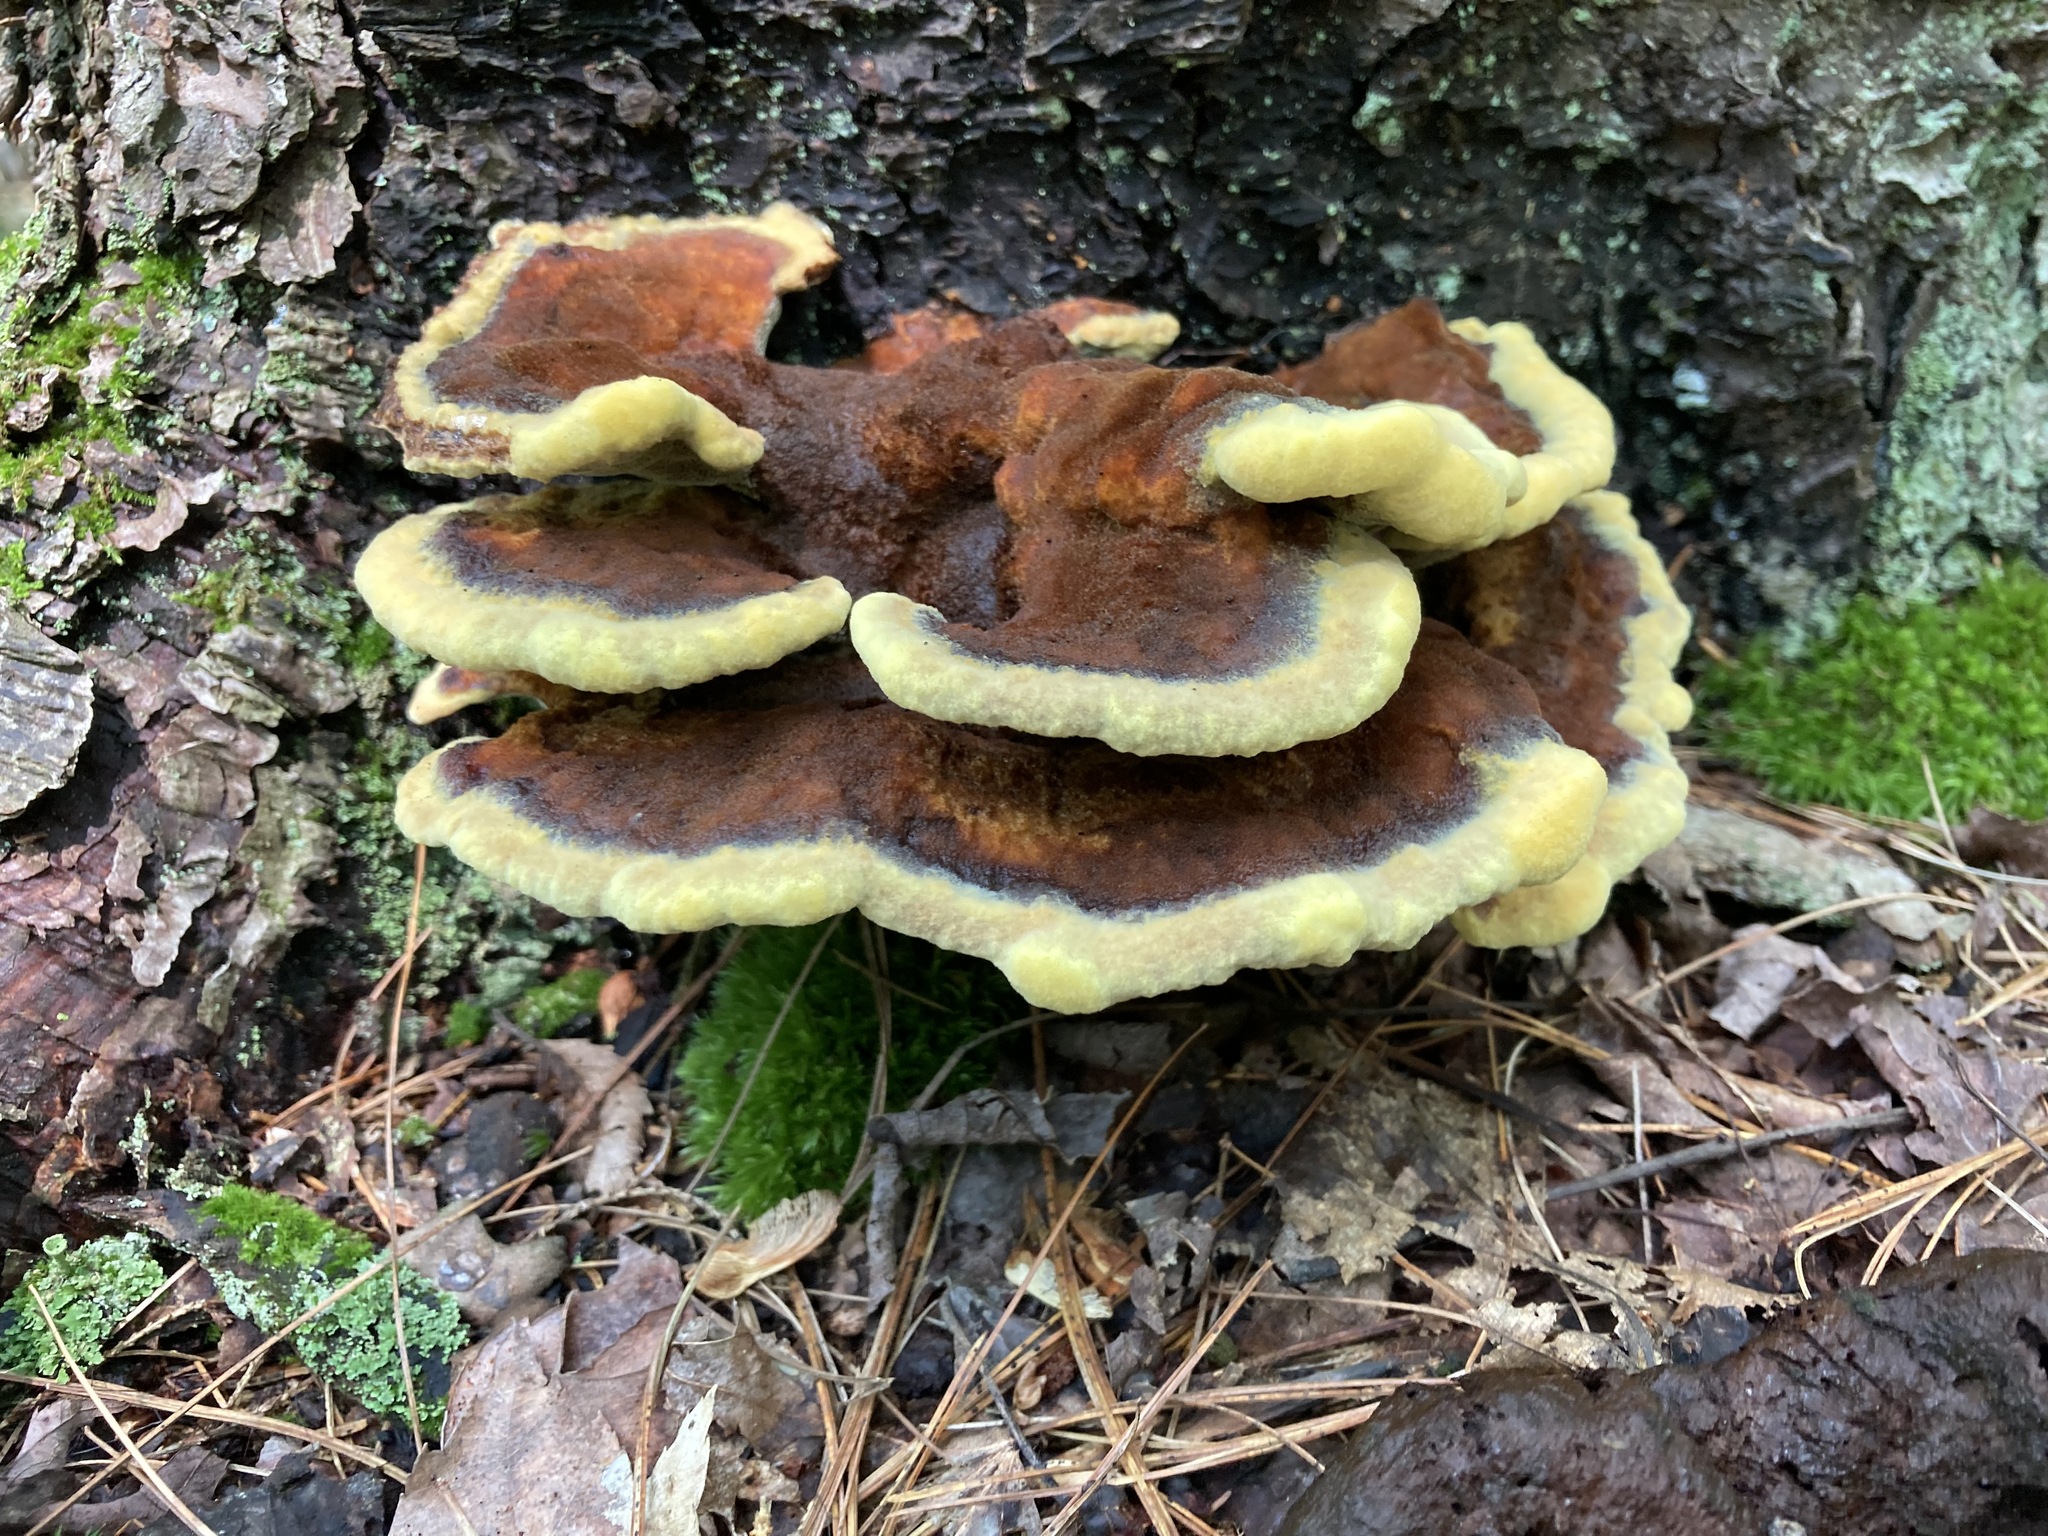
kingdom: Fungi
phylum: Basidiomycota
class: Agaricomycetes
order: Polyporales
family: Laetiporaceae
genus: Phaeolus
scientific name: Phaeolus schweinitzii
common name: Dyer's mazegill
